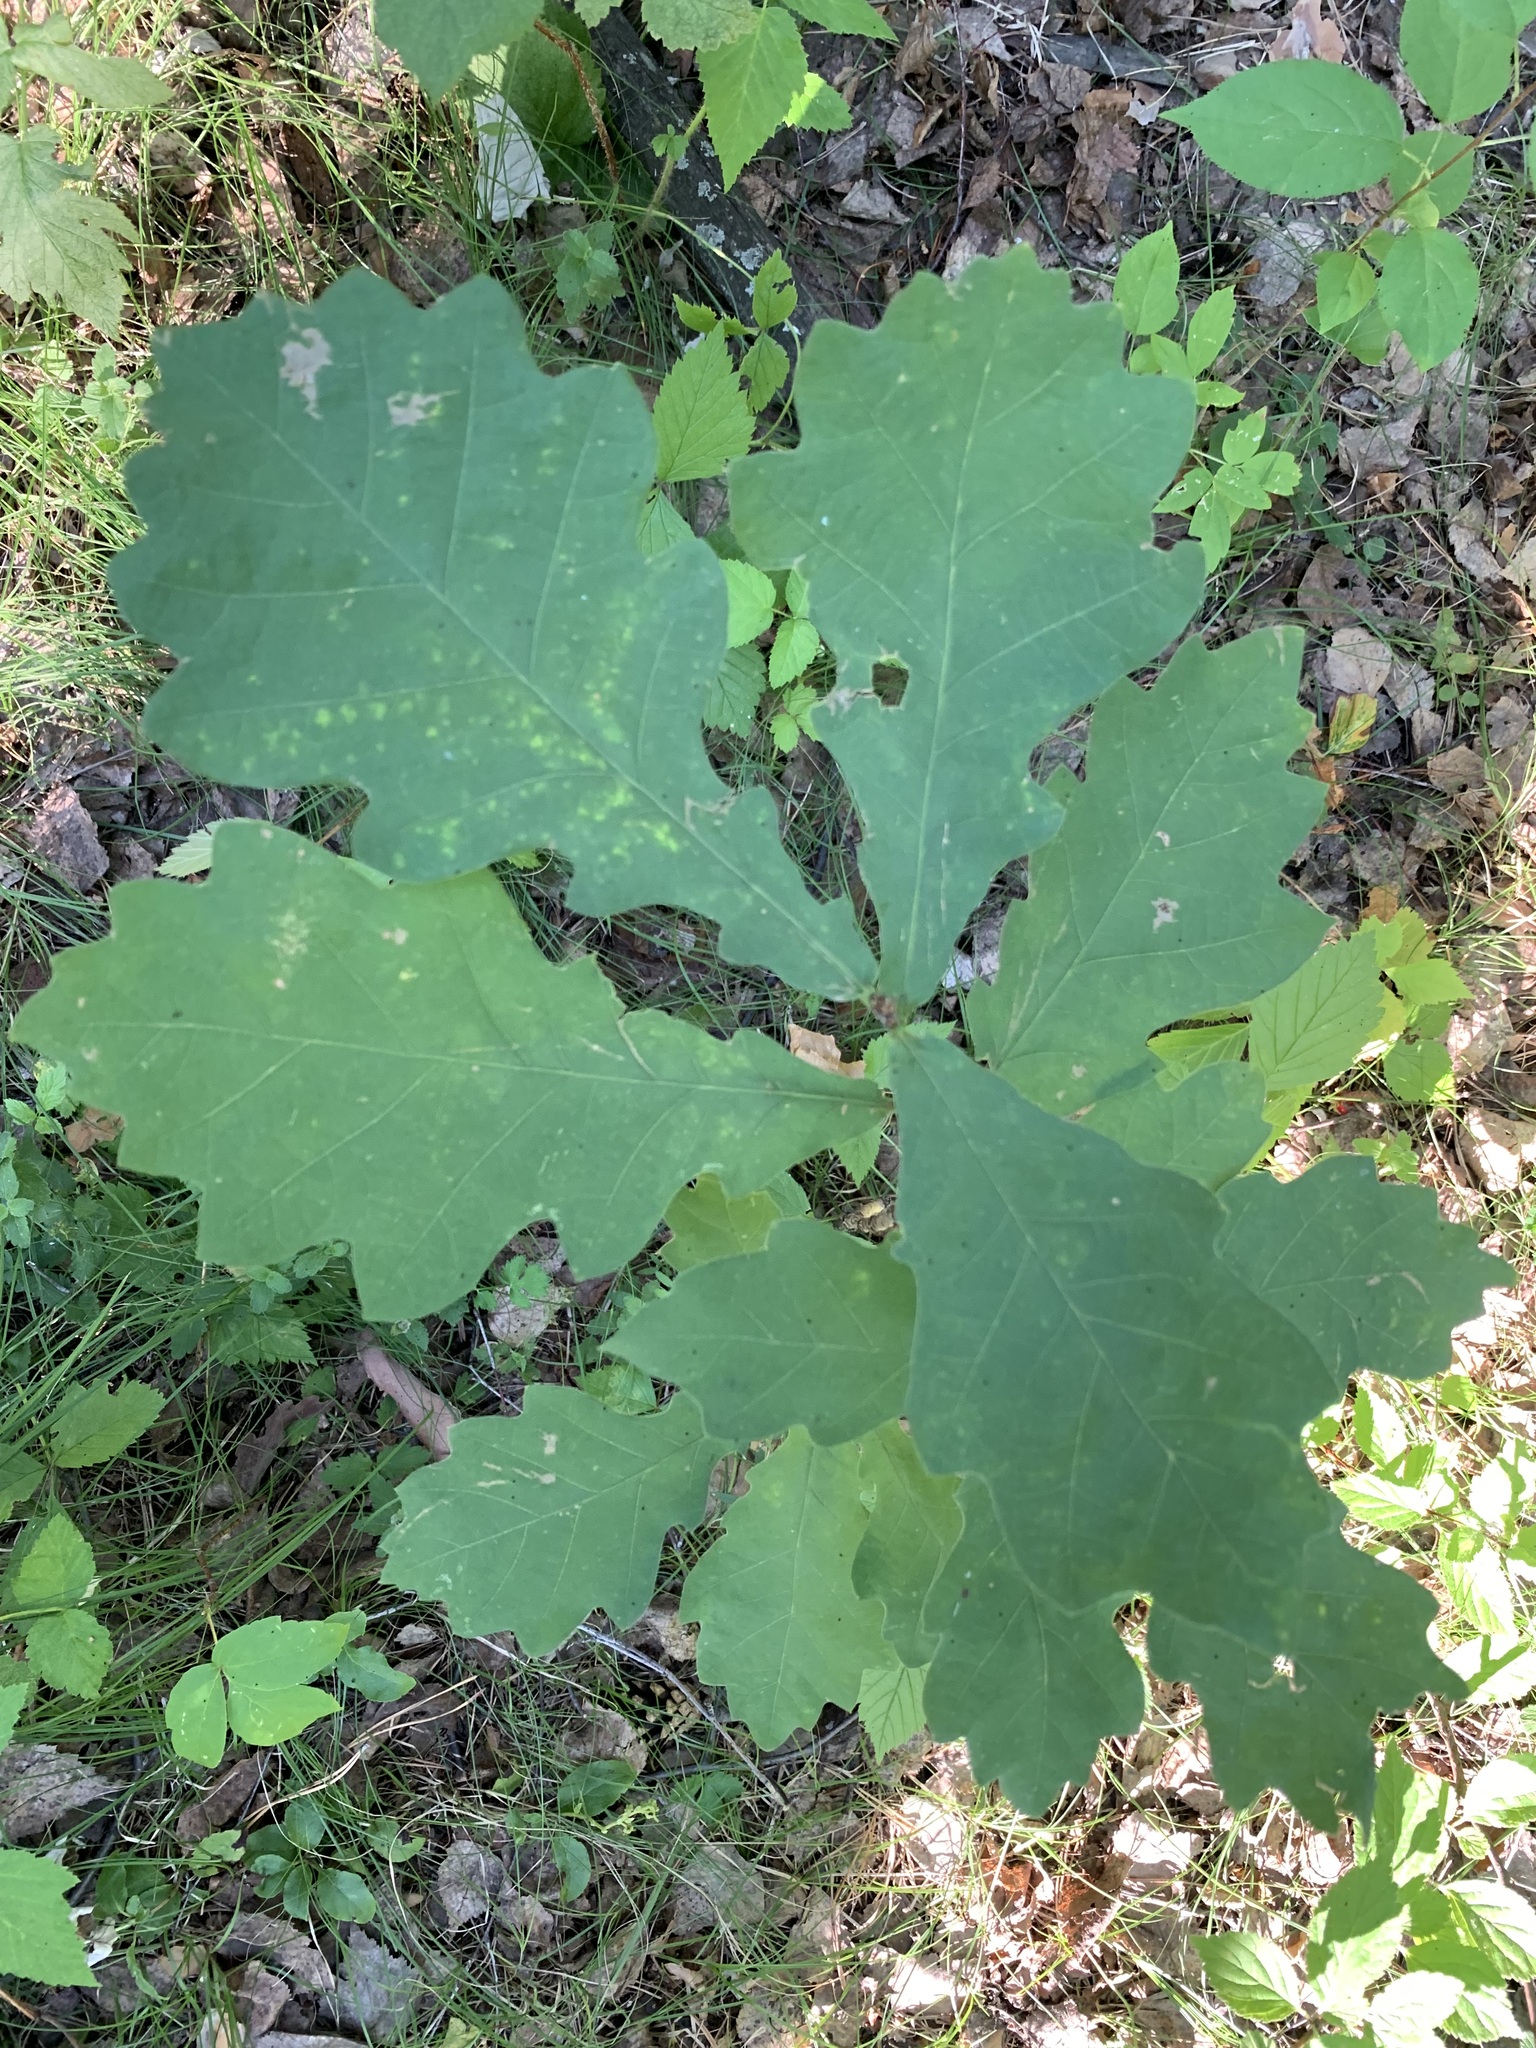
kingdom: Plantae
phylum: Tracheophyta
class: Magnoliopsida
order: Fagales
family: Fagaceae
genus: Quercus
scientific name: Quercus robur
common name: Pedunculate oak
